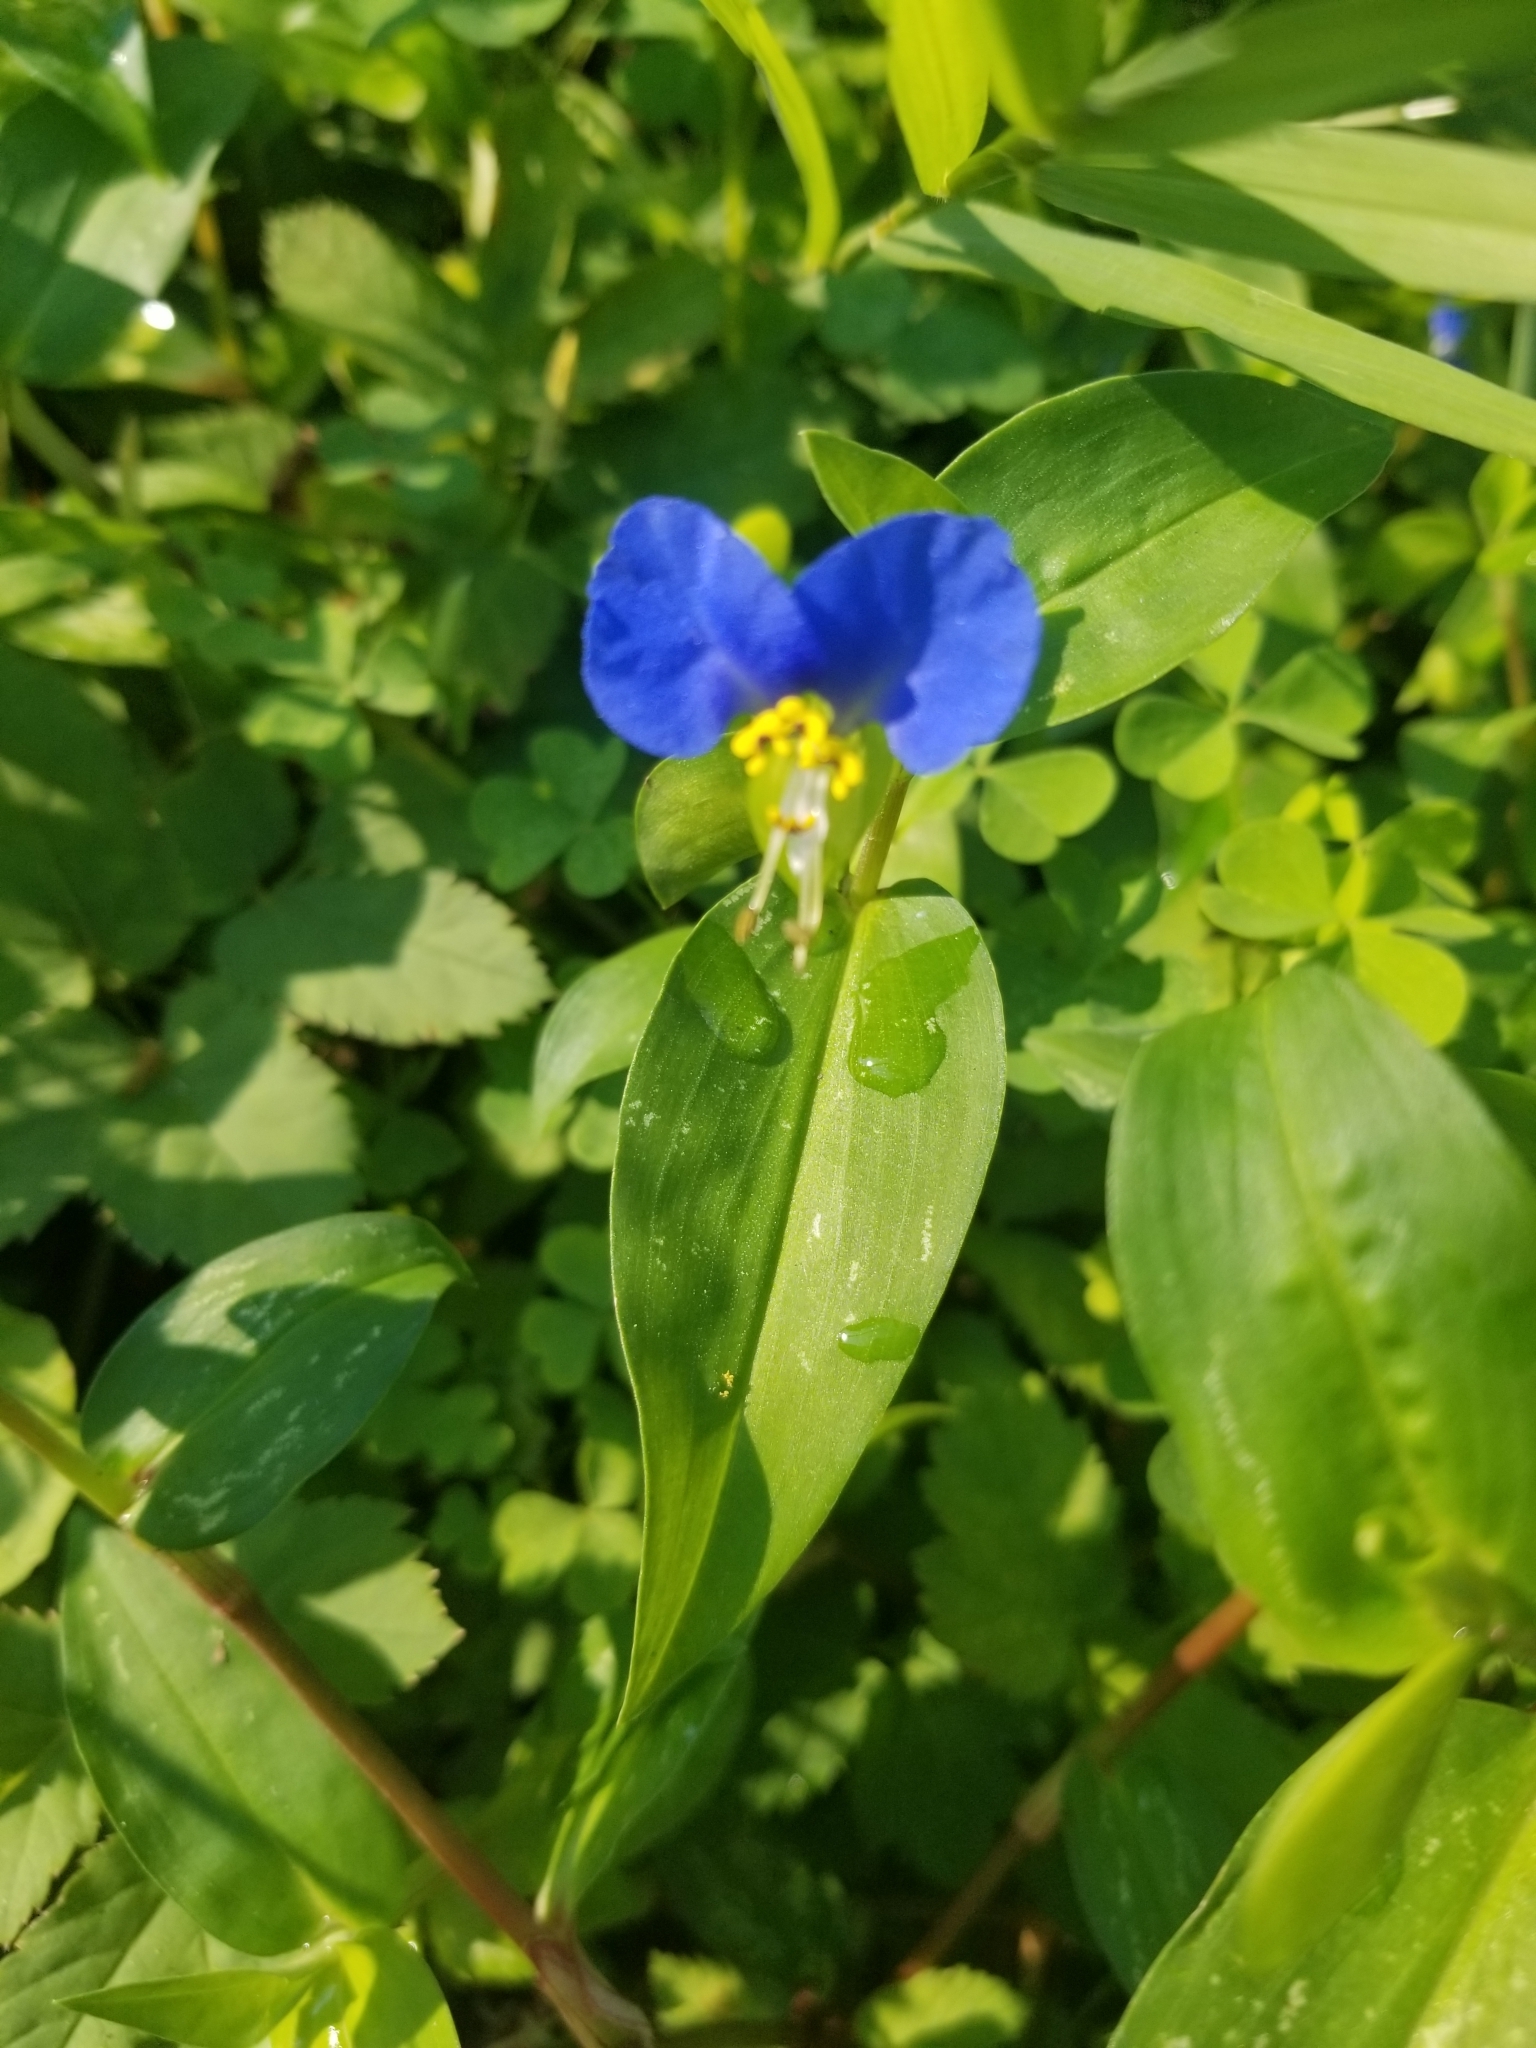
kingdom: Plantae
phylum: Tracheophyta
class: Liliopsida
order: Commelinales
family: Commelinaceae
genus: Commelina
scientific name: Commelina communis
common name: Asiatic dayflower
